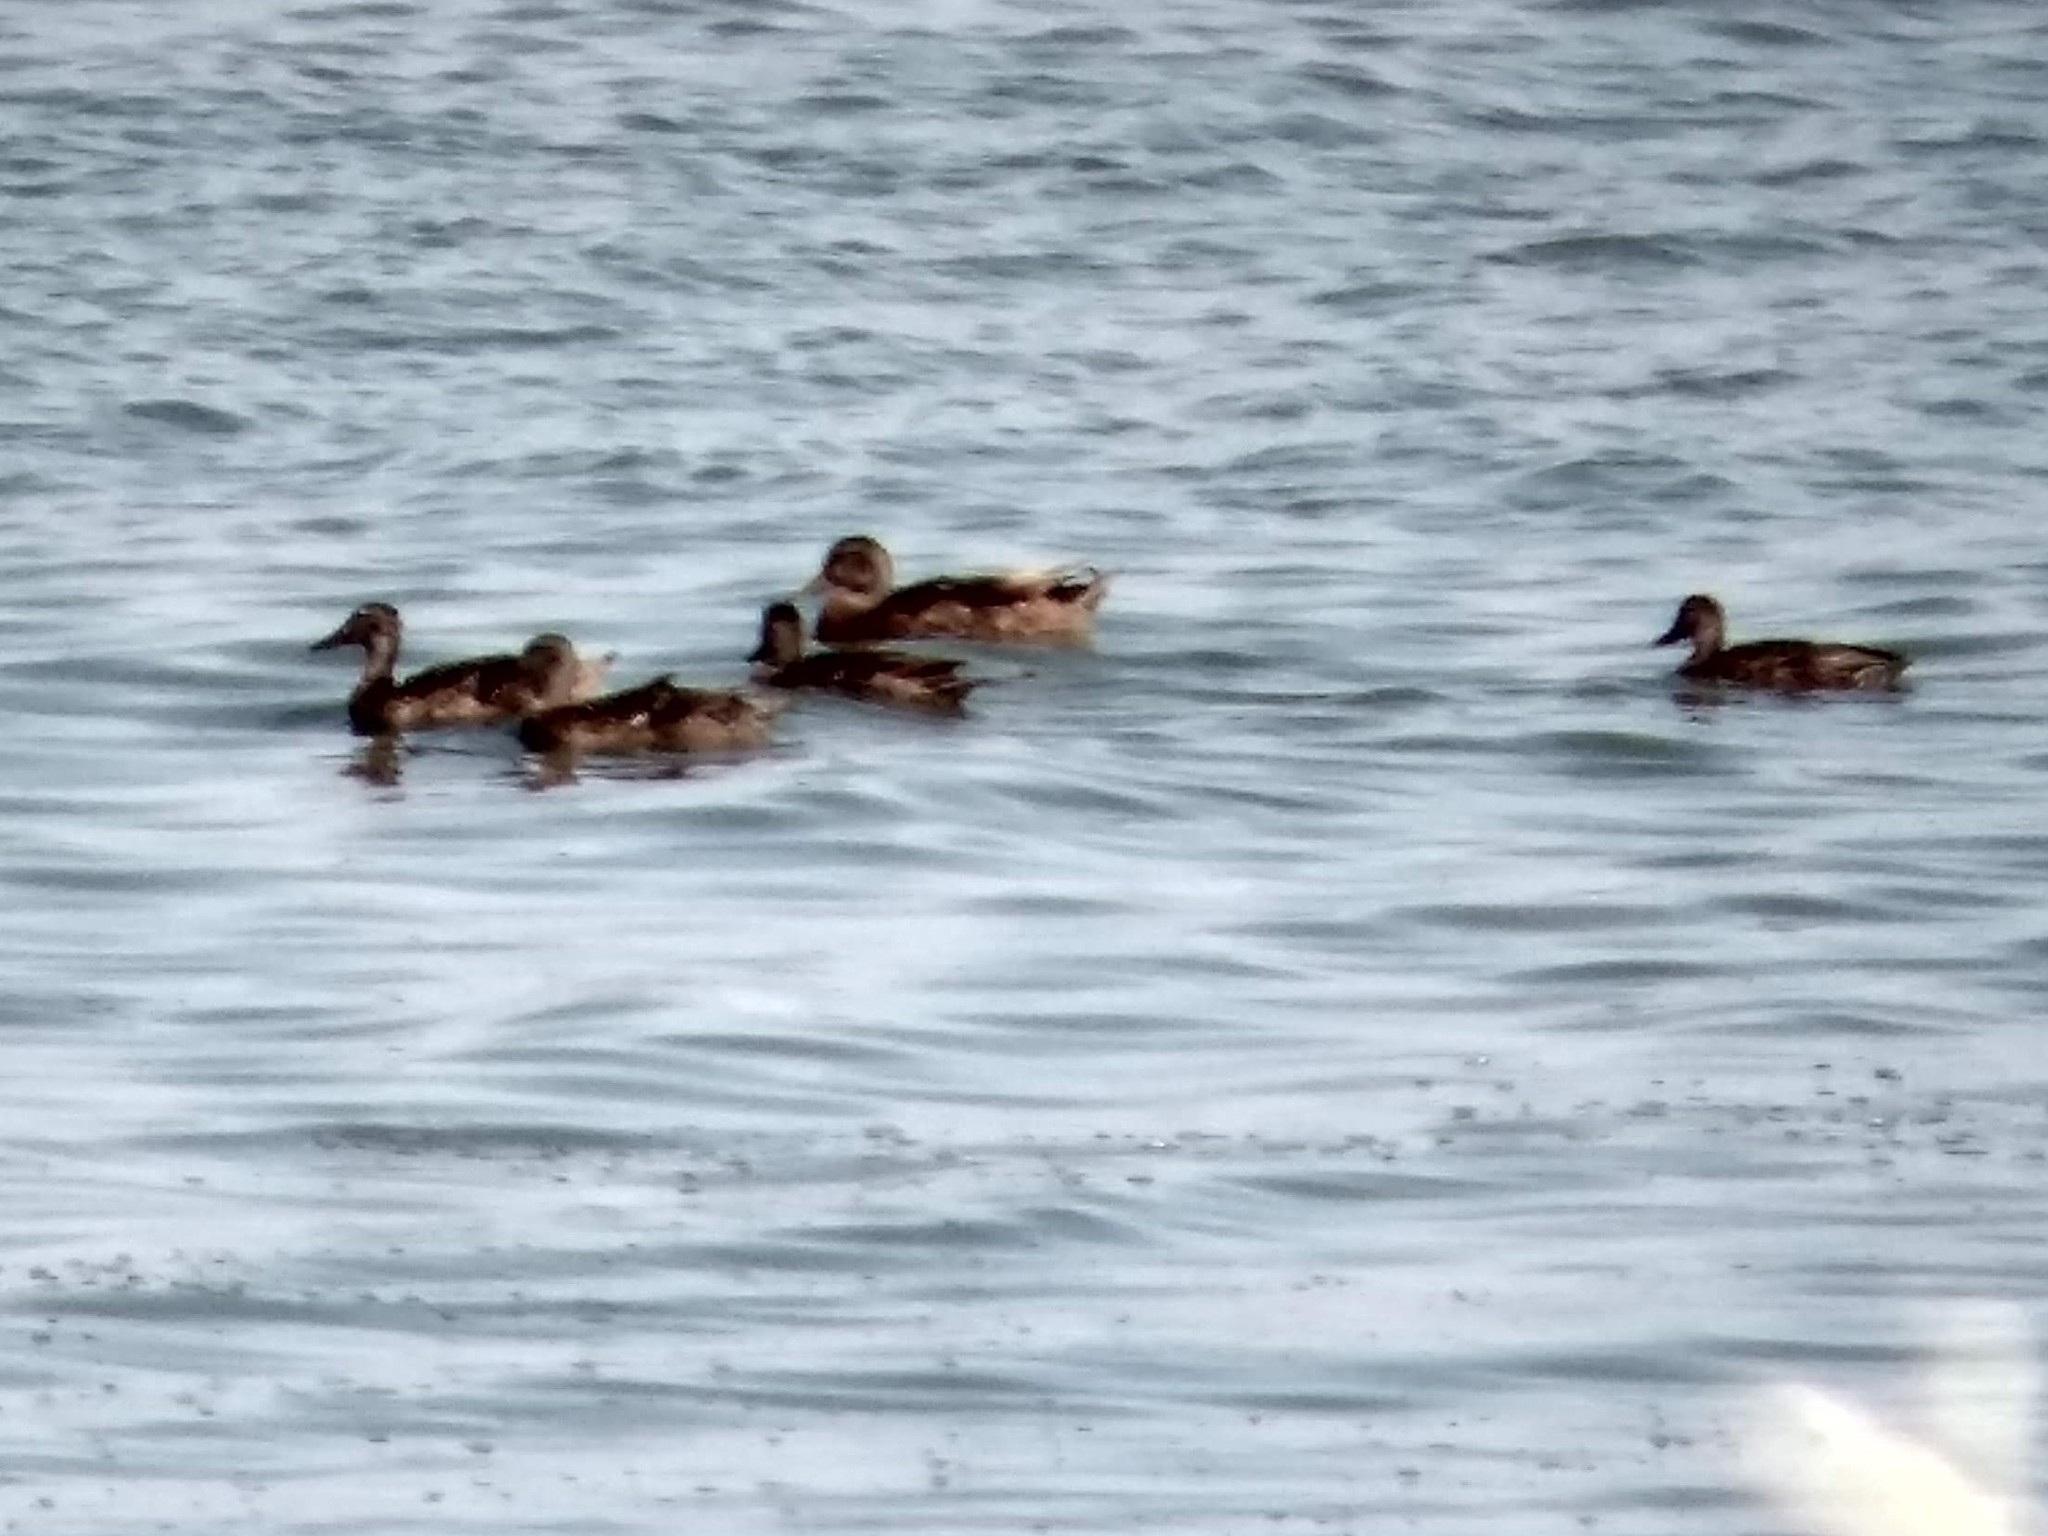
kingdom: Animalia
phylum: Chordata
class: Aves
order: Anseriformes
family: Anatidae
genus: Anas
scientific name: Anas platyrhynchos
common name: Mallard
